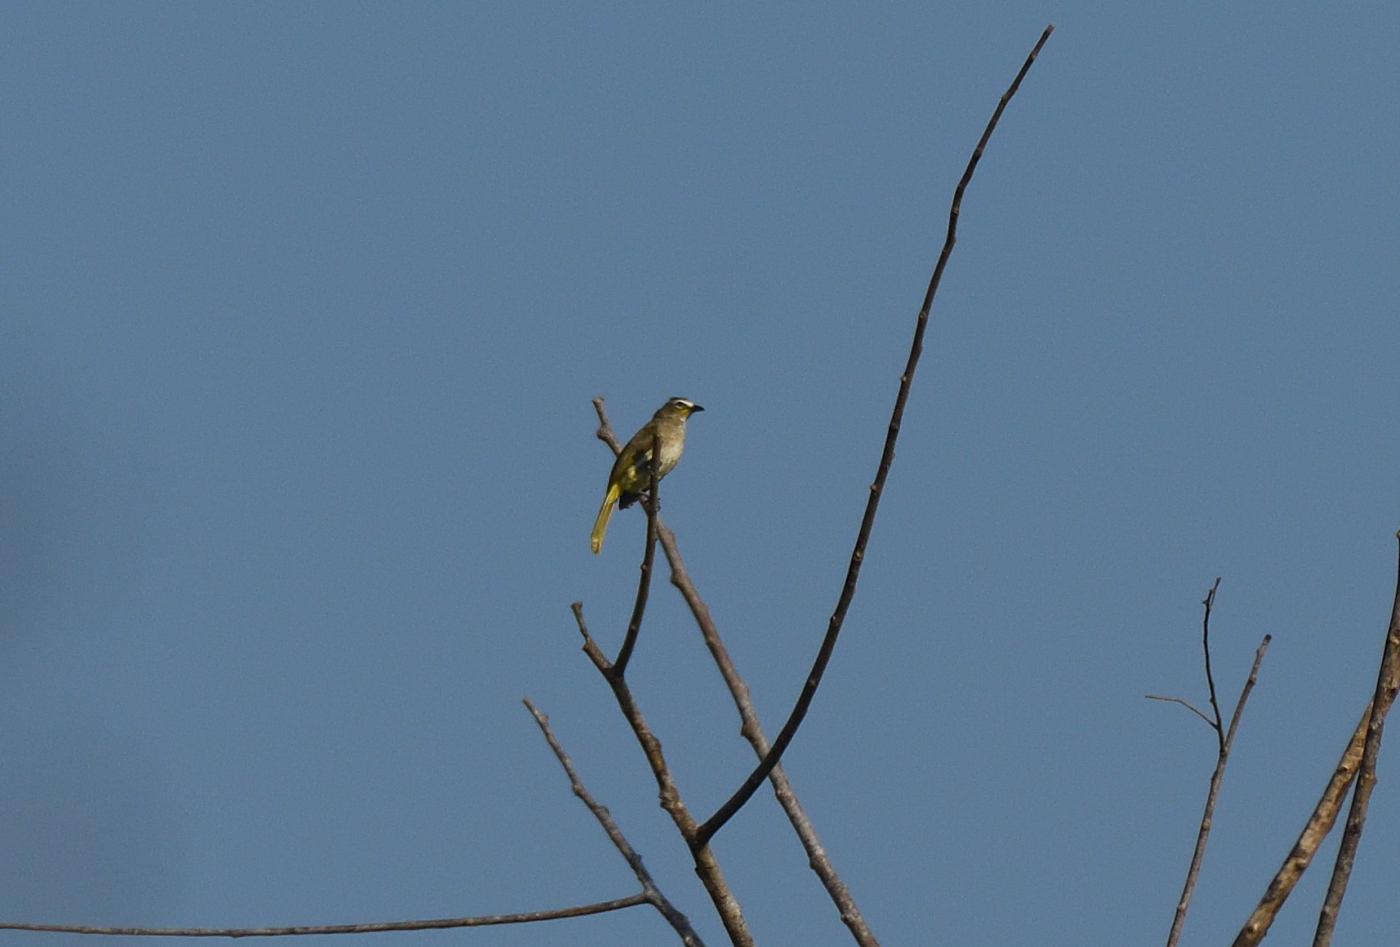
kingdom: Animalia
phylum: Chordata
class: Aves
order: Passeriformes
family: Pycnonotidae
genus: Pycnonotus
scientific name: Pycnonotus luteolus
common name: White-browed bulbul
